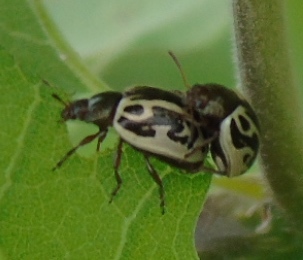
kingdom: Animalia
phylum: Arthropoda
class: Insecta
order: Coleoptera
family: Chrysomelidae
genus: Calligrapha
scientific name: Calligrapha
